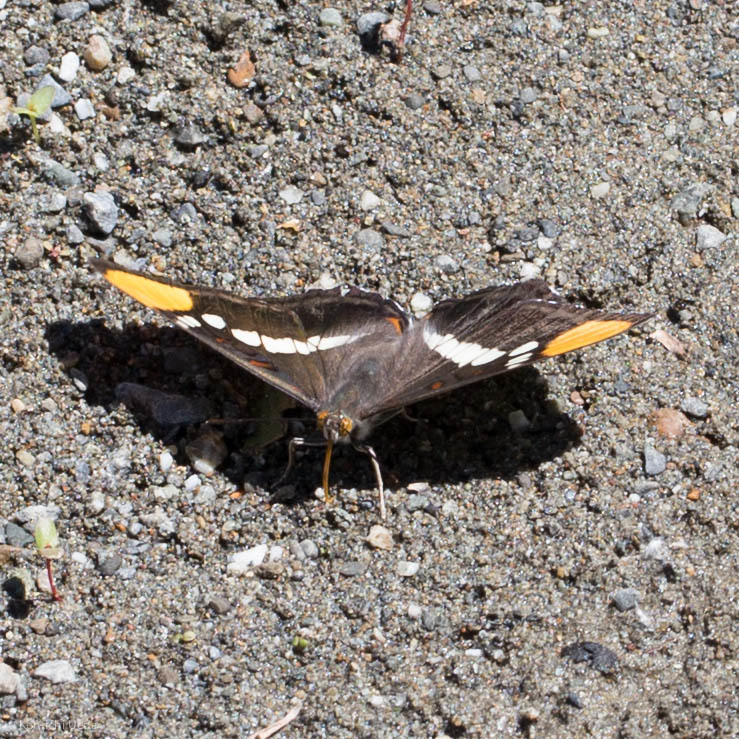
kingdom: Animalia
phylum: Arthropoda
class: Insecta
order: Lepidoptera
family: Nymphalidae
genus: Limenitis
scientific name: Limenitis bredowii
